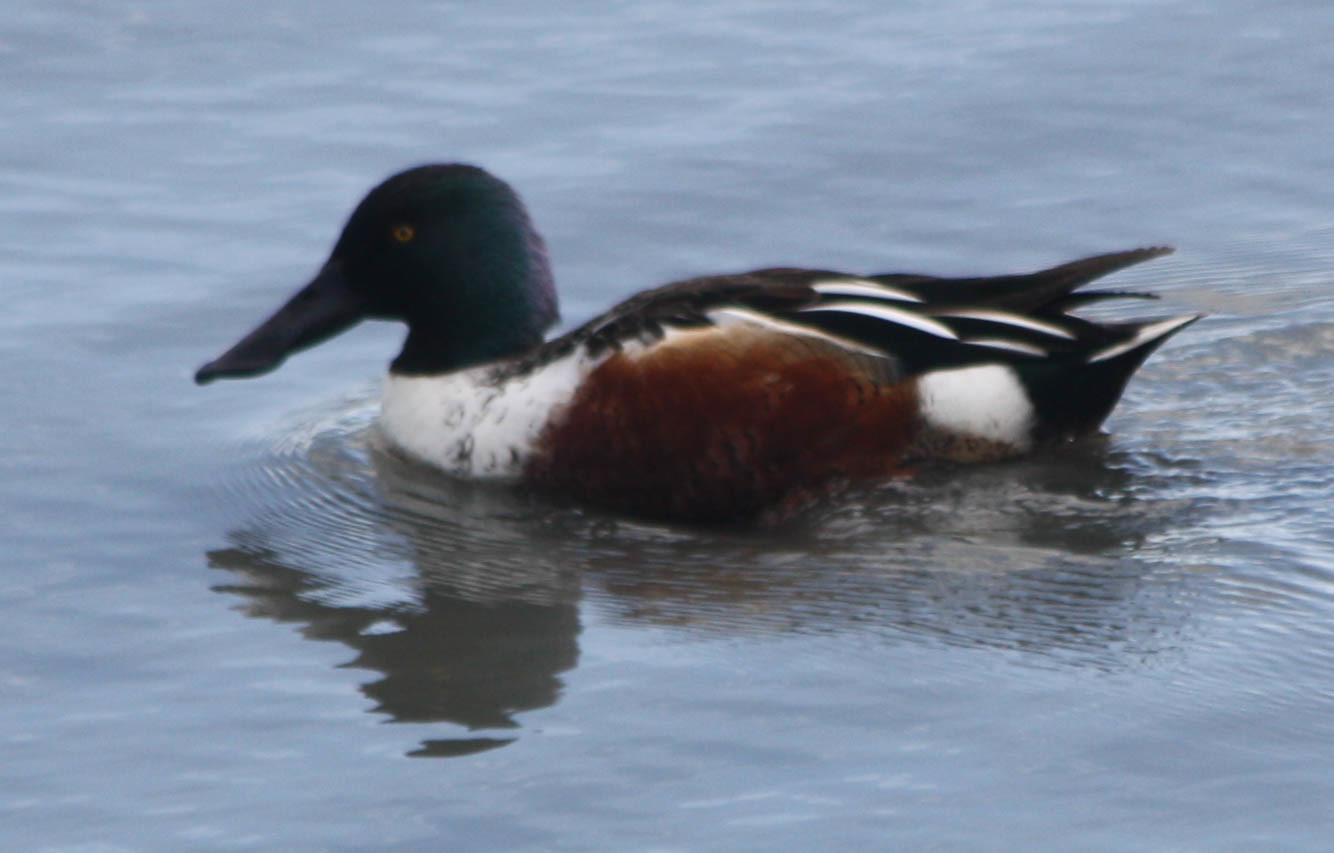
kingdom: Animalia
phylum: Chordata
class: Aves
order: Anseriformes
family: Anatidae
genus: Spatula
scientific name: Spatula clypeata
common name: Northern shoveler
